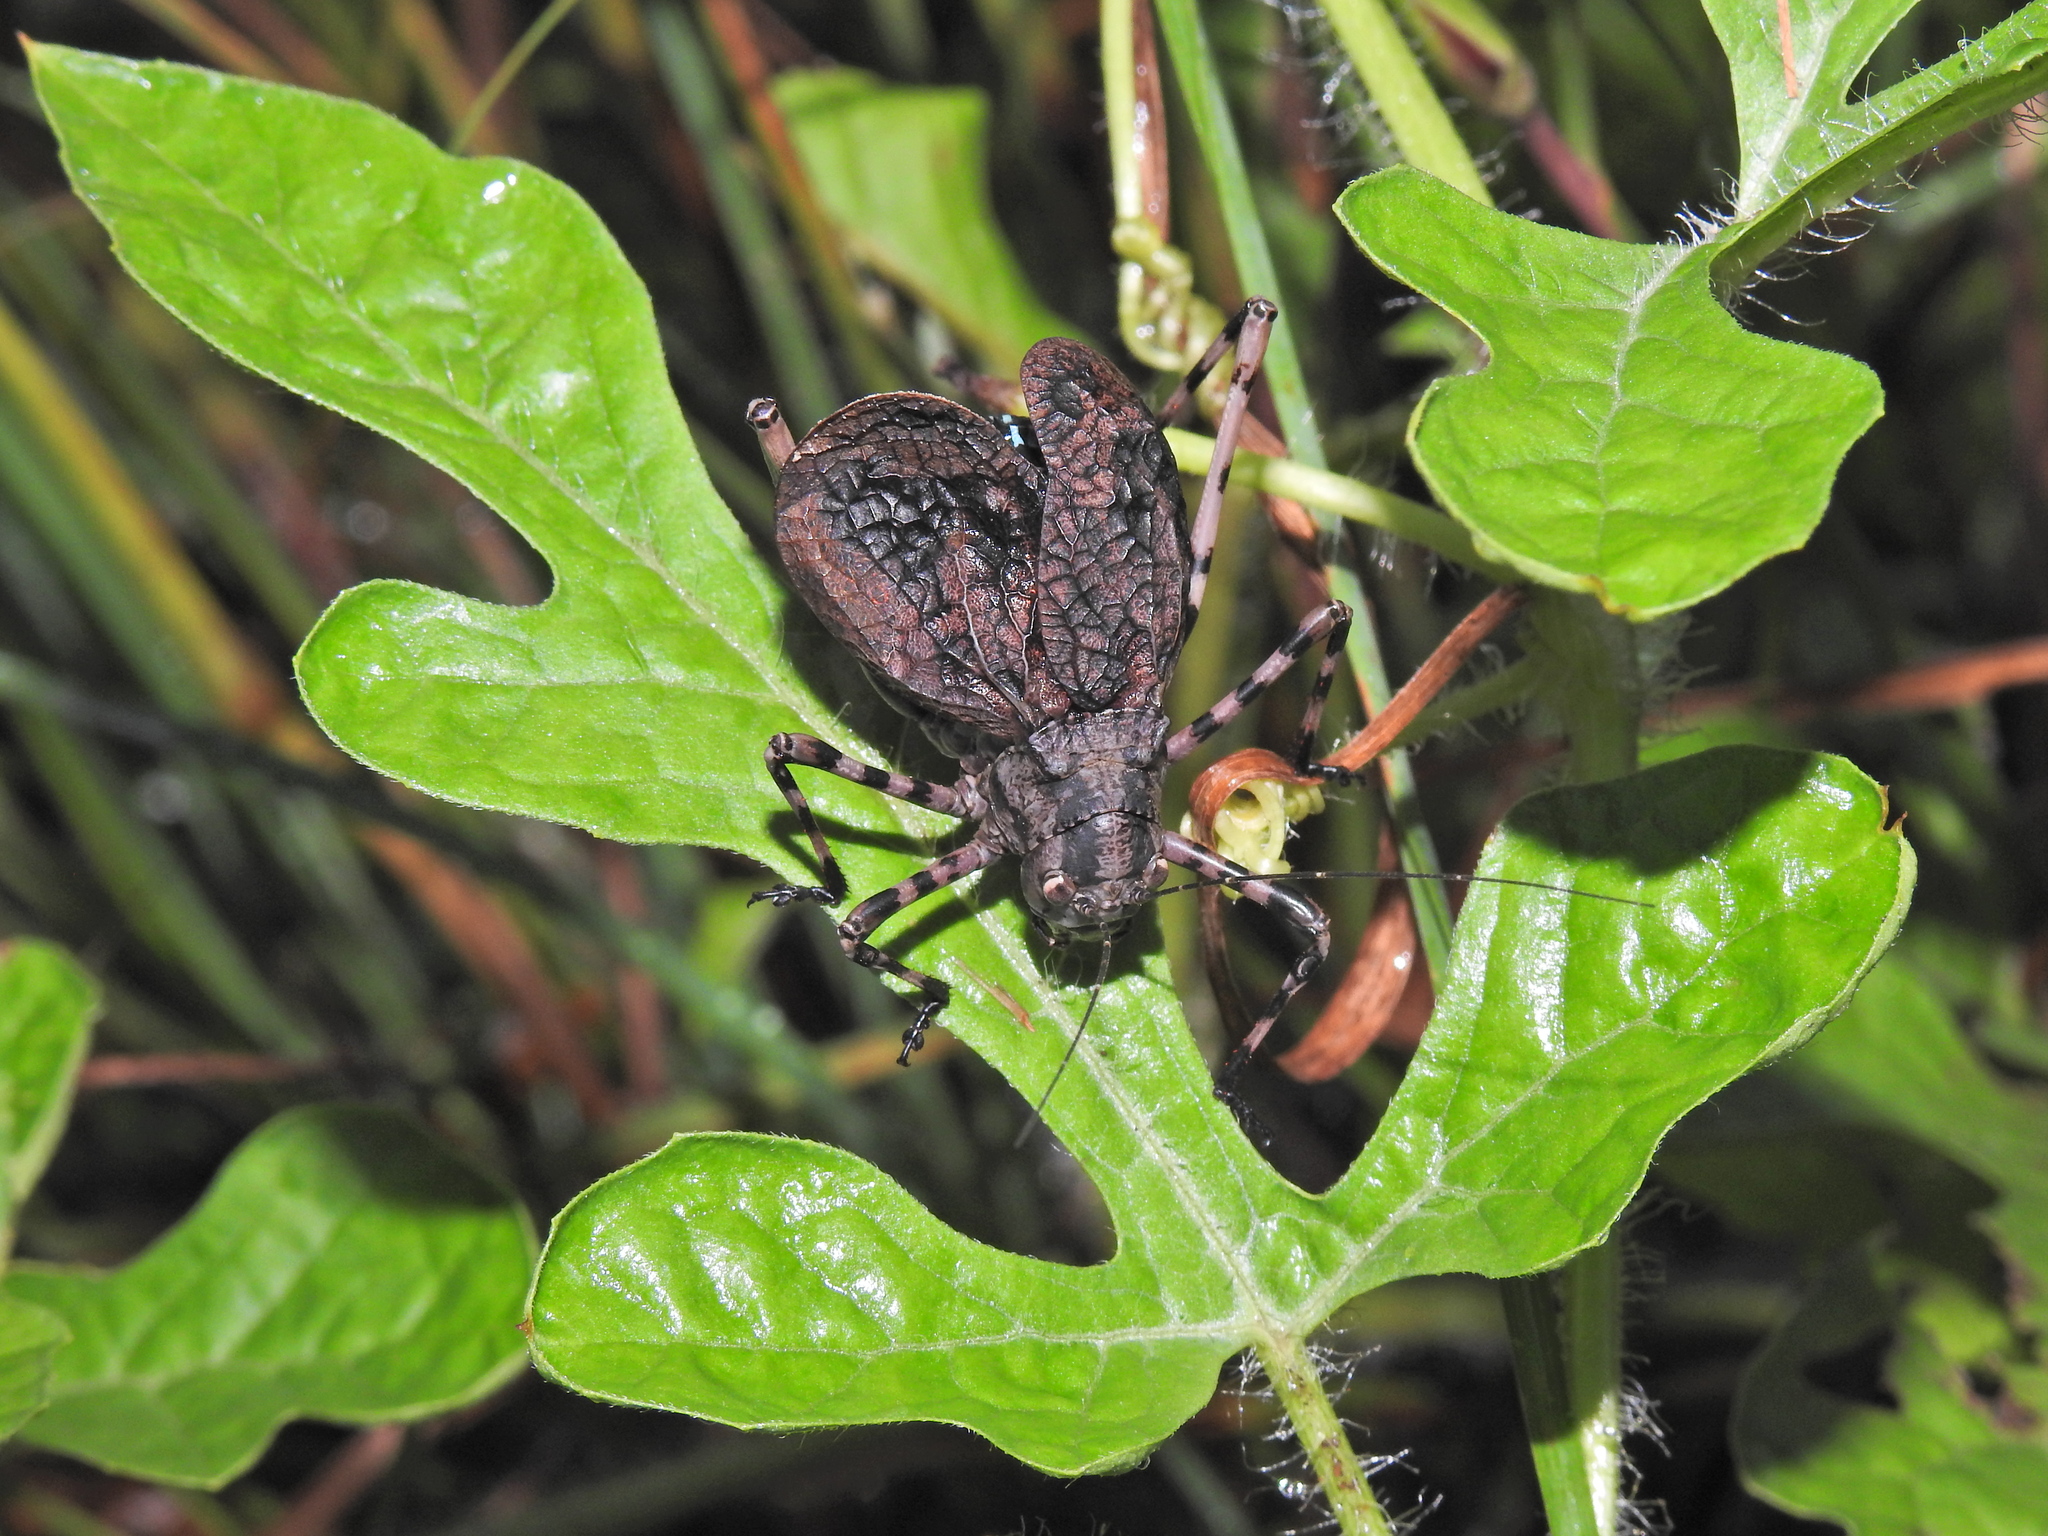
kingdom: Animalia
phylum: Arthropoda
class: Insecta
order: Orthoptera
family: Tettigoniidae
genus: Acripeza
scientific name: Acripeza reticulata
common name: Mountain katydid
